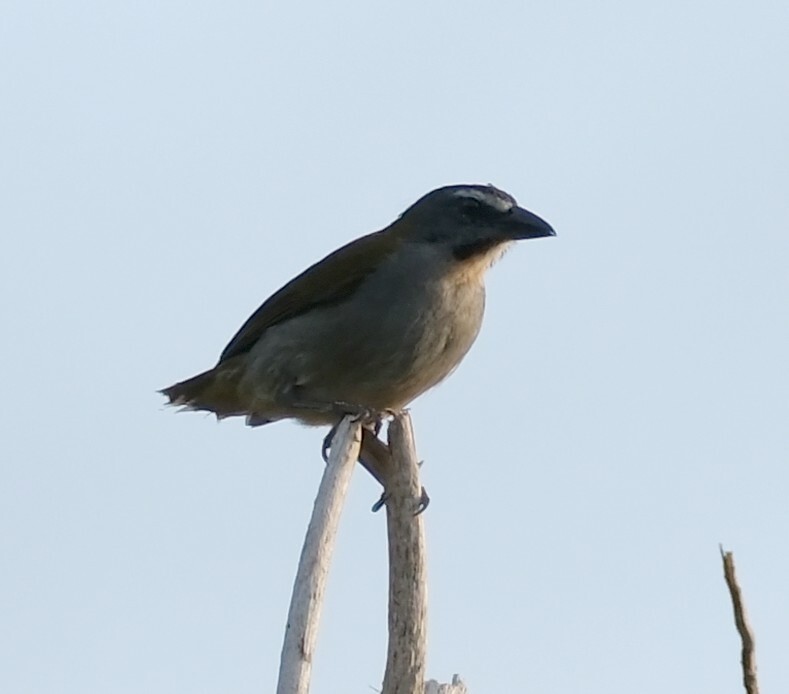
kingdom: Animalia
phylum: Chordata
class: Aves
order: Passeriformes
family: Thraupidae
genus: Saltator
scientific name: Saltator maximus
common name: Buff-throated saltator
